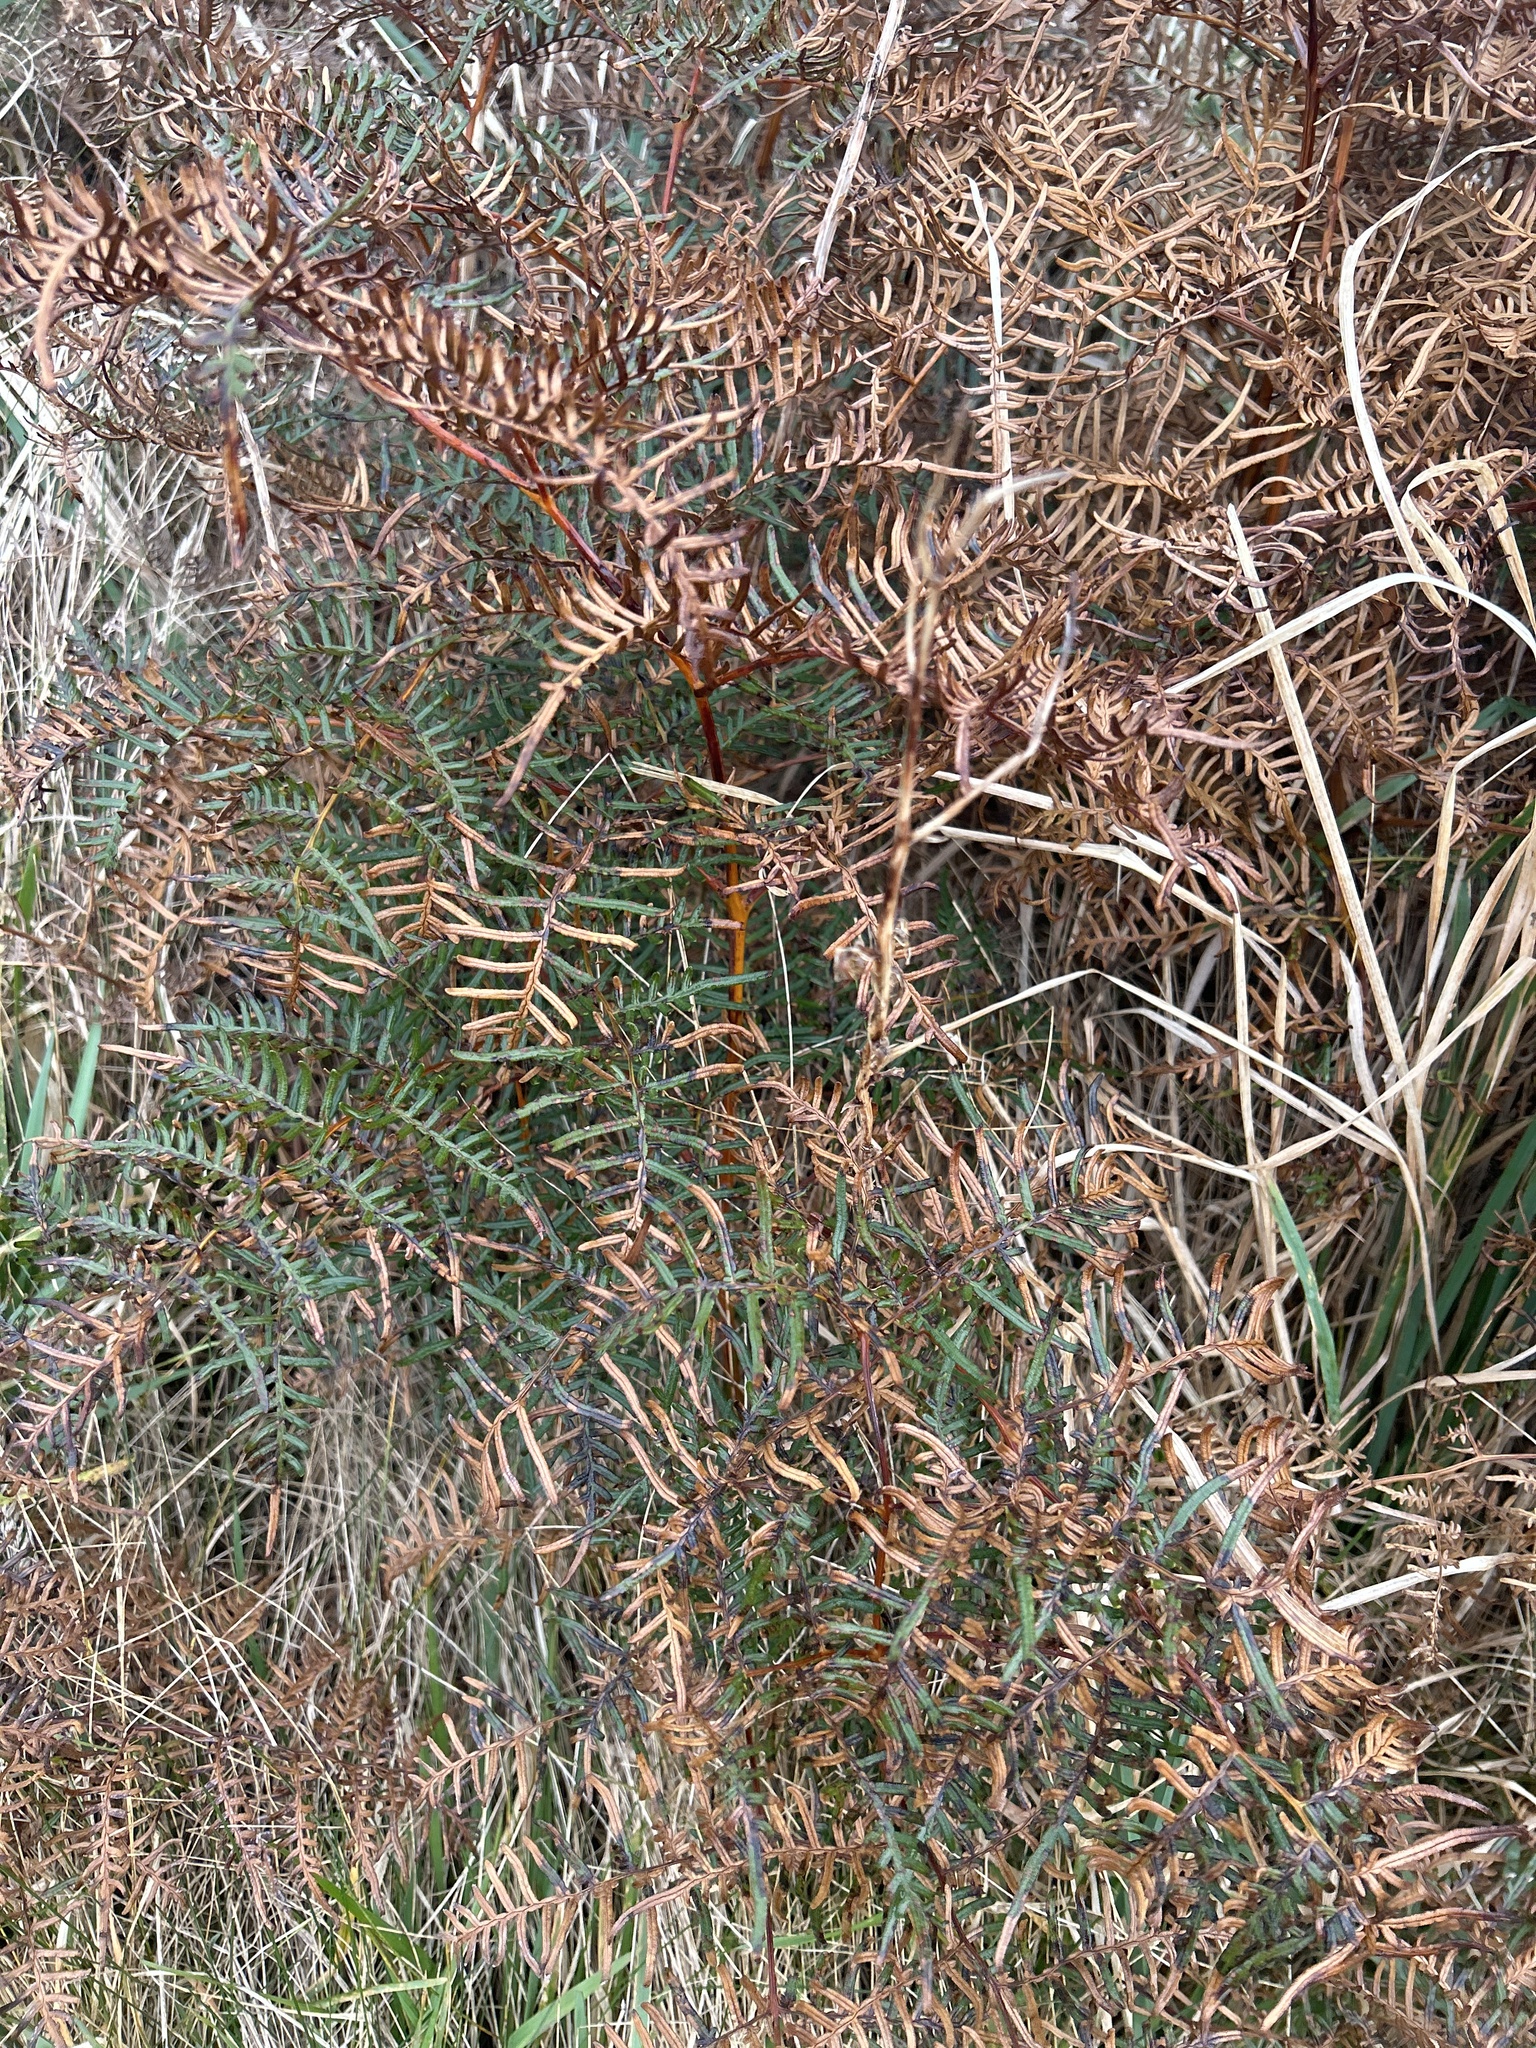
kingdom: Plantae
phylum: Tracheophyta
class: Polypodiopsida
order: Polypodiales
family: Dennstaedtiaceae
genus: Pteridium
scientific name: Pteridium esculentum
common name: Bracken fern
